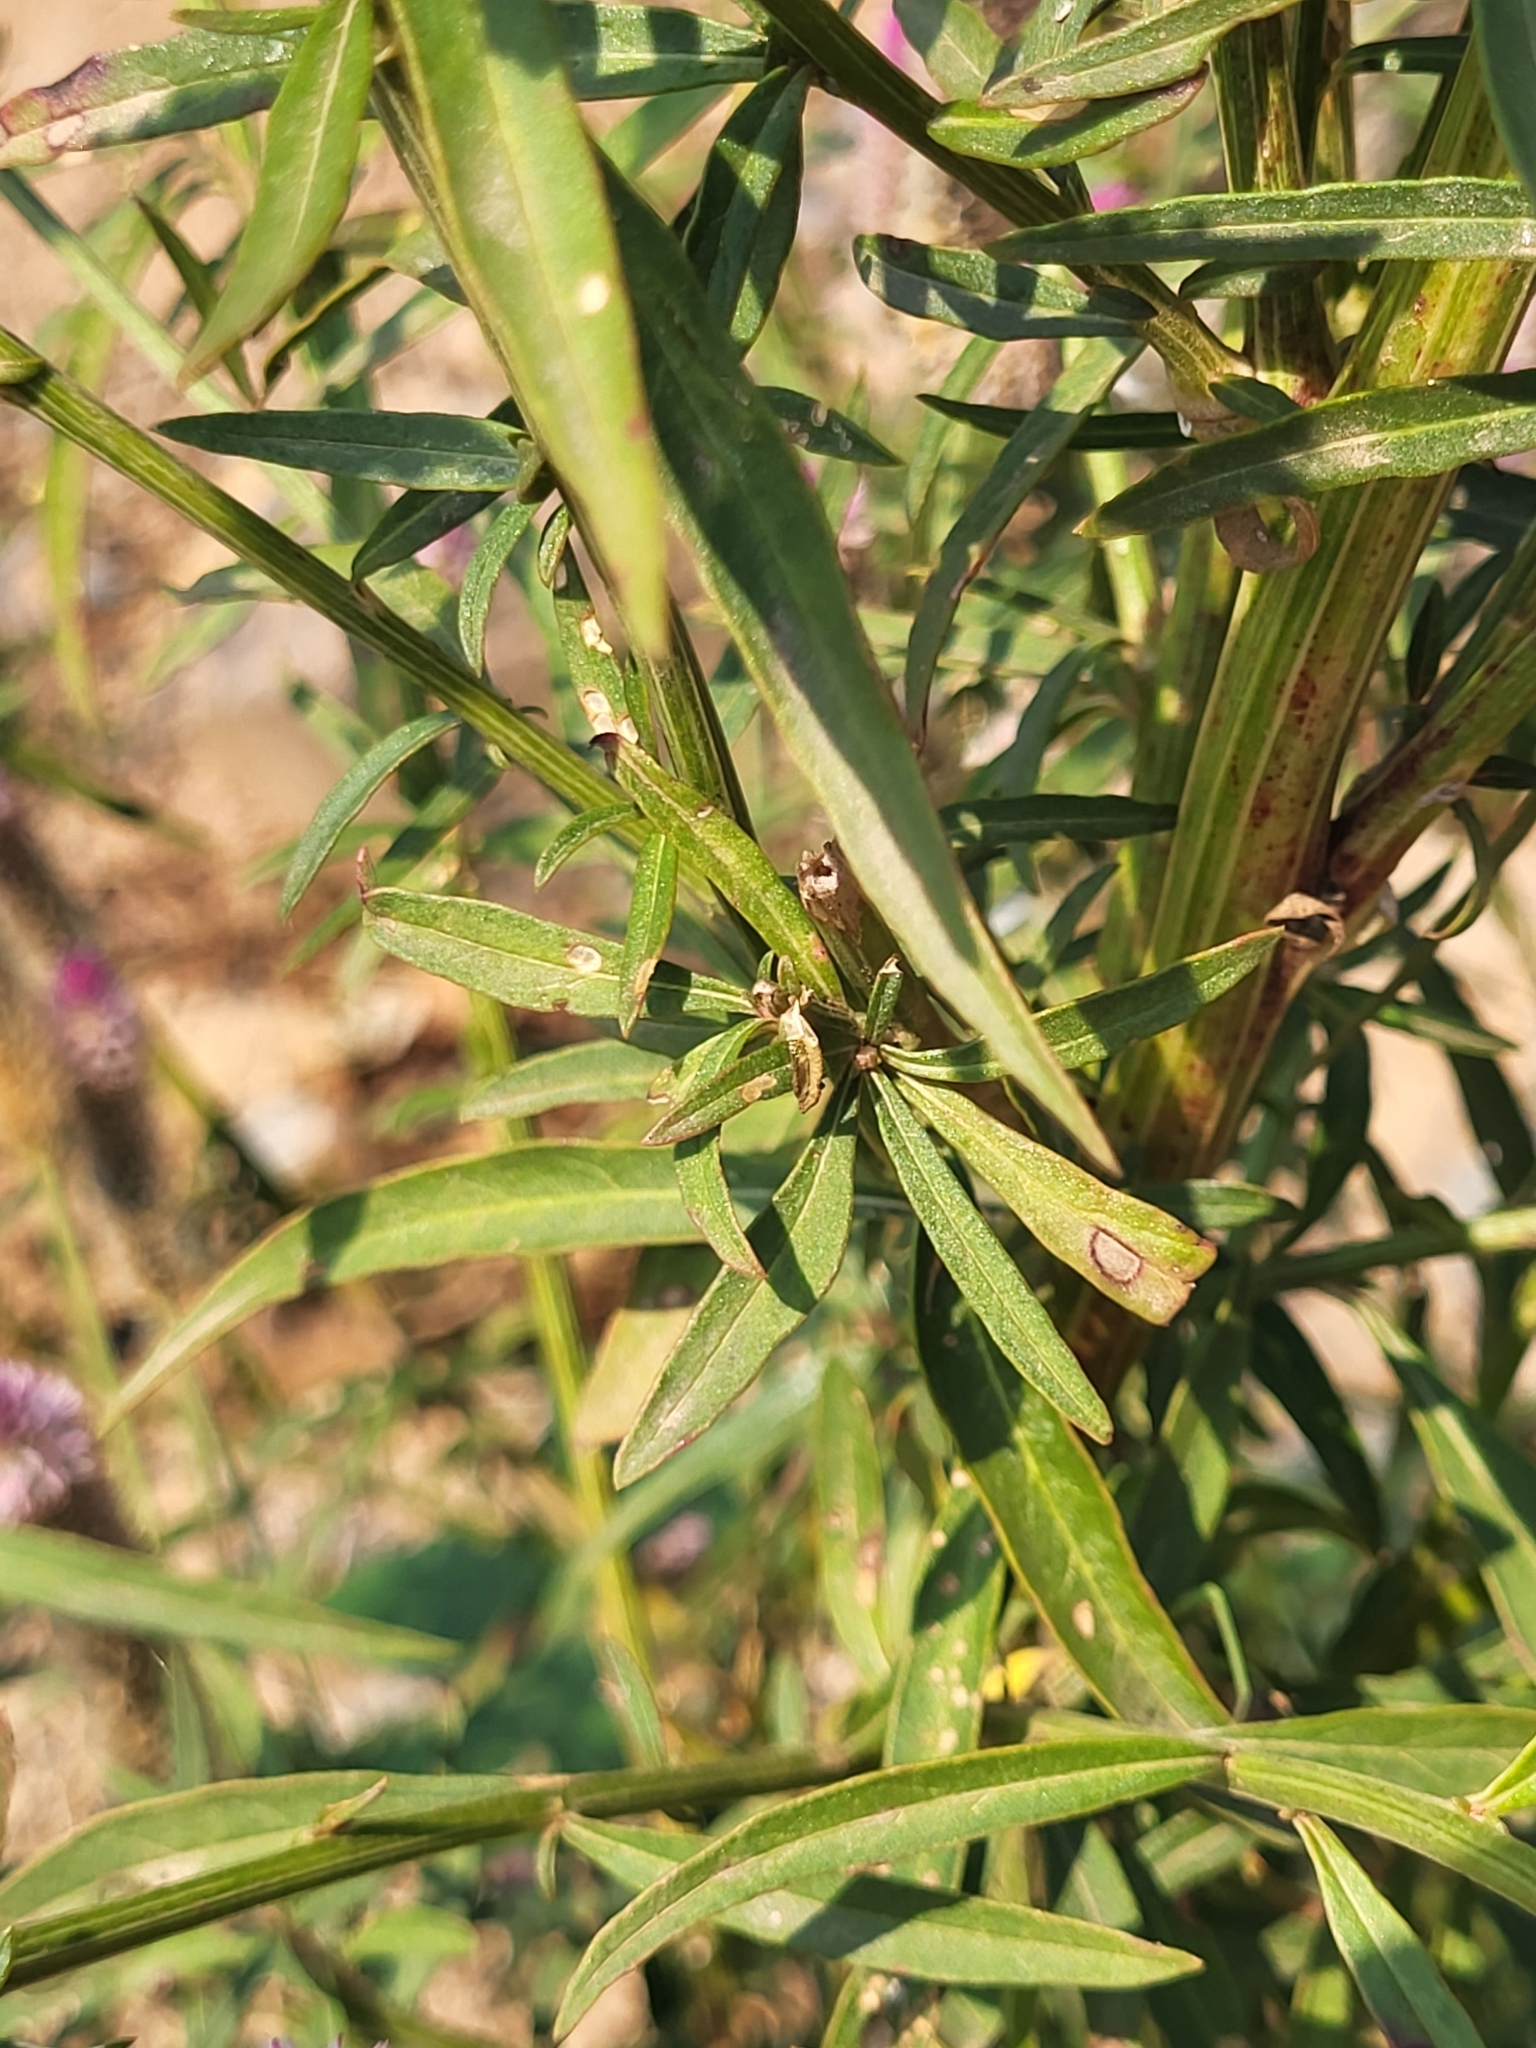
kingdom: Plantae
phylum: Tracheophyta
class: Magnoliopsida
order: Caryophyllales
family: Amaranthaceae
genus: Celosia
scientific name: Celosia argentea
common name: Feather cockscomb
